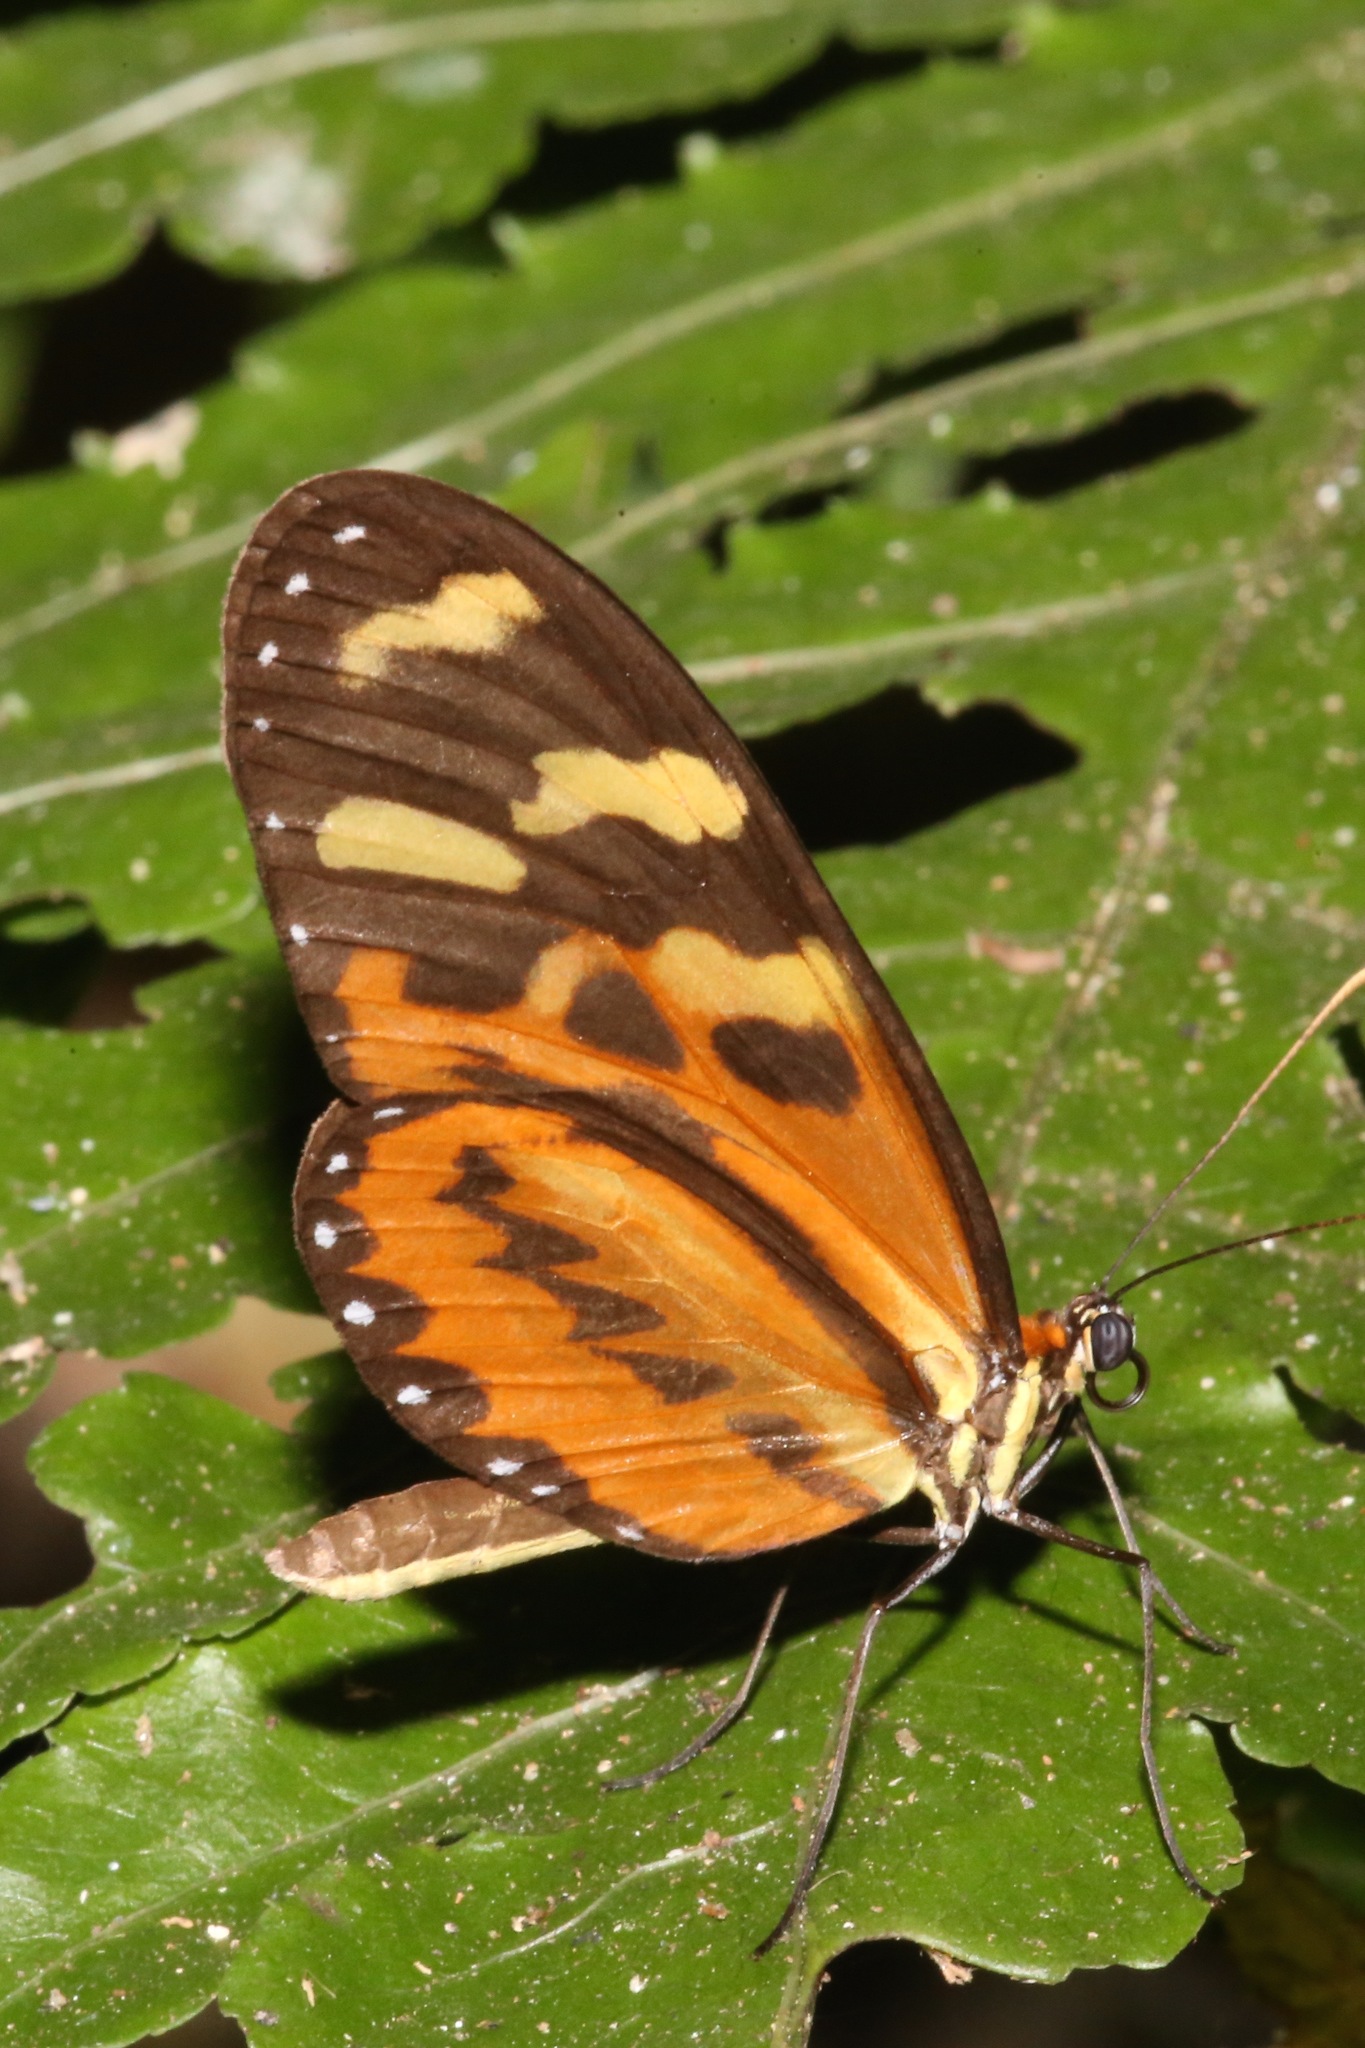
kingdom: Animalia
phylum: Arthropoda
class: Insecta
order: Lepidoptera
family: Nymphalidae
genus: Mechanitis
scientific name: Mechanitis polymnia
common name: Disturbed tigerwing
